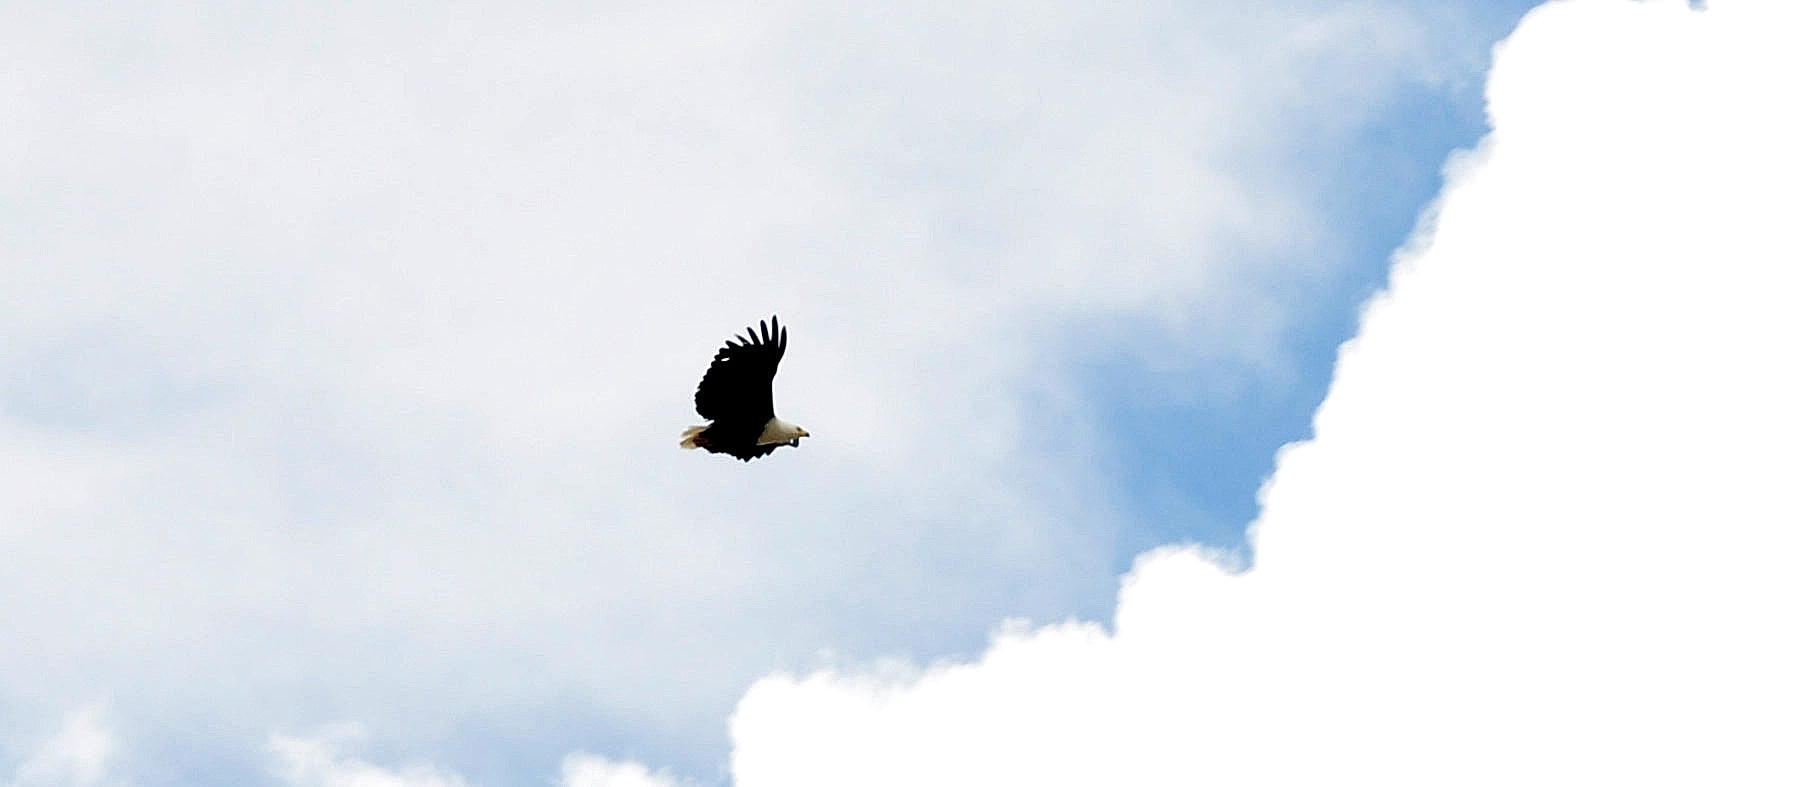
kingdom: Animalia
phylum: Chordata
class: Aves
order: Accipitriformes
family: Accipitridae
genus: Haliaeetus
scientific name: Haliaeetus vocifer
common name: African fish eagle
